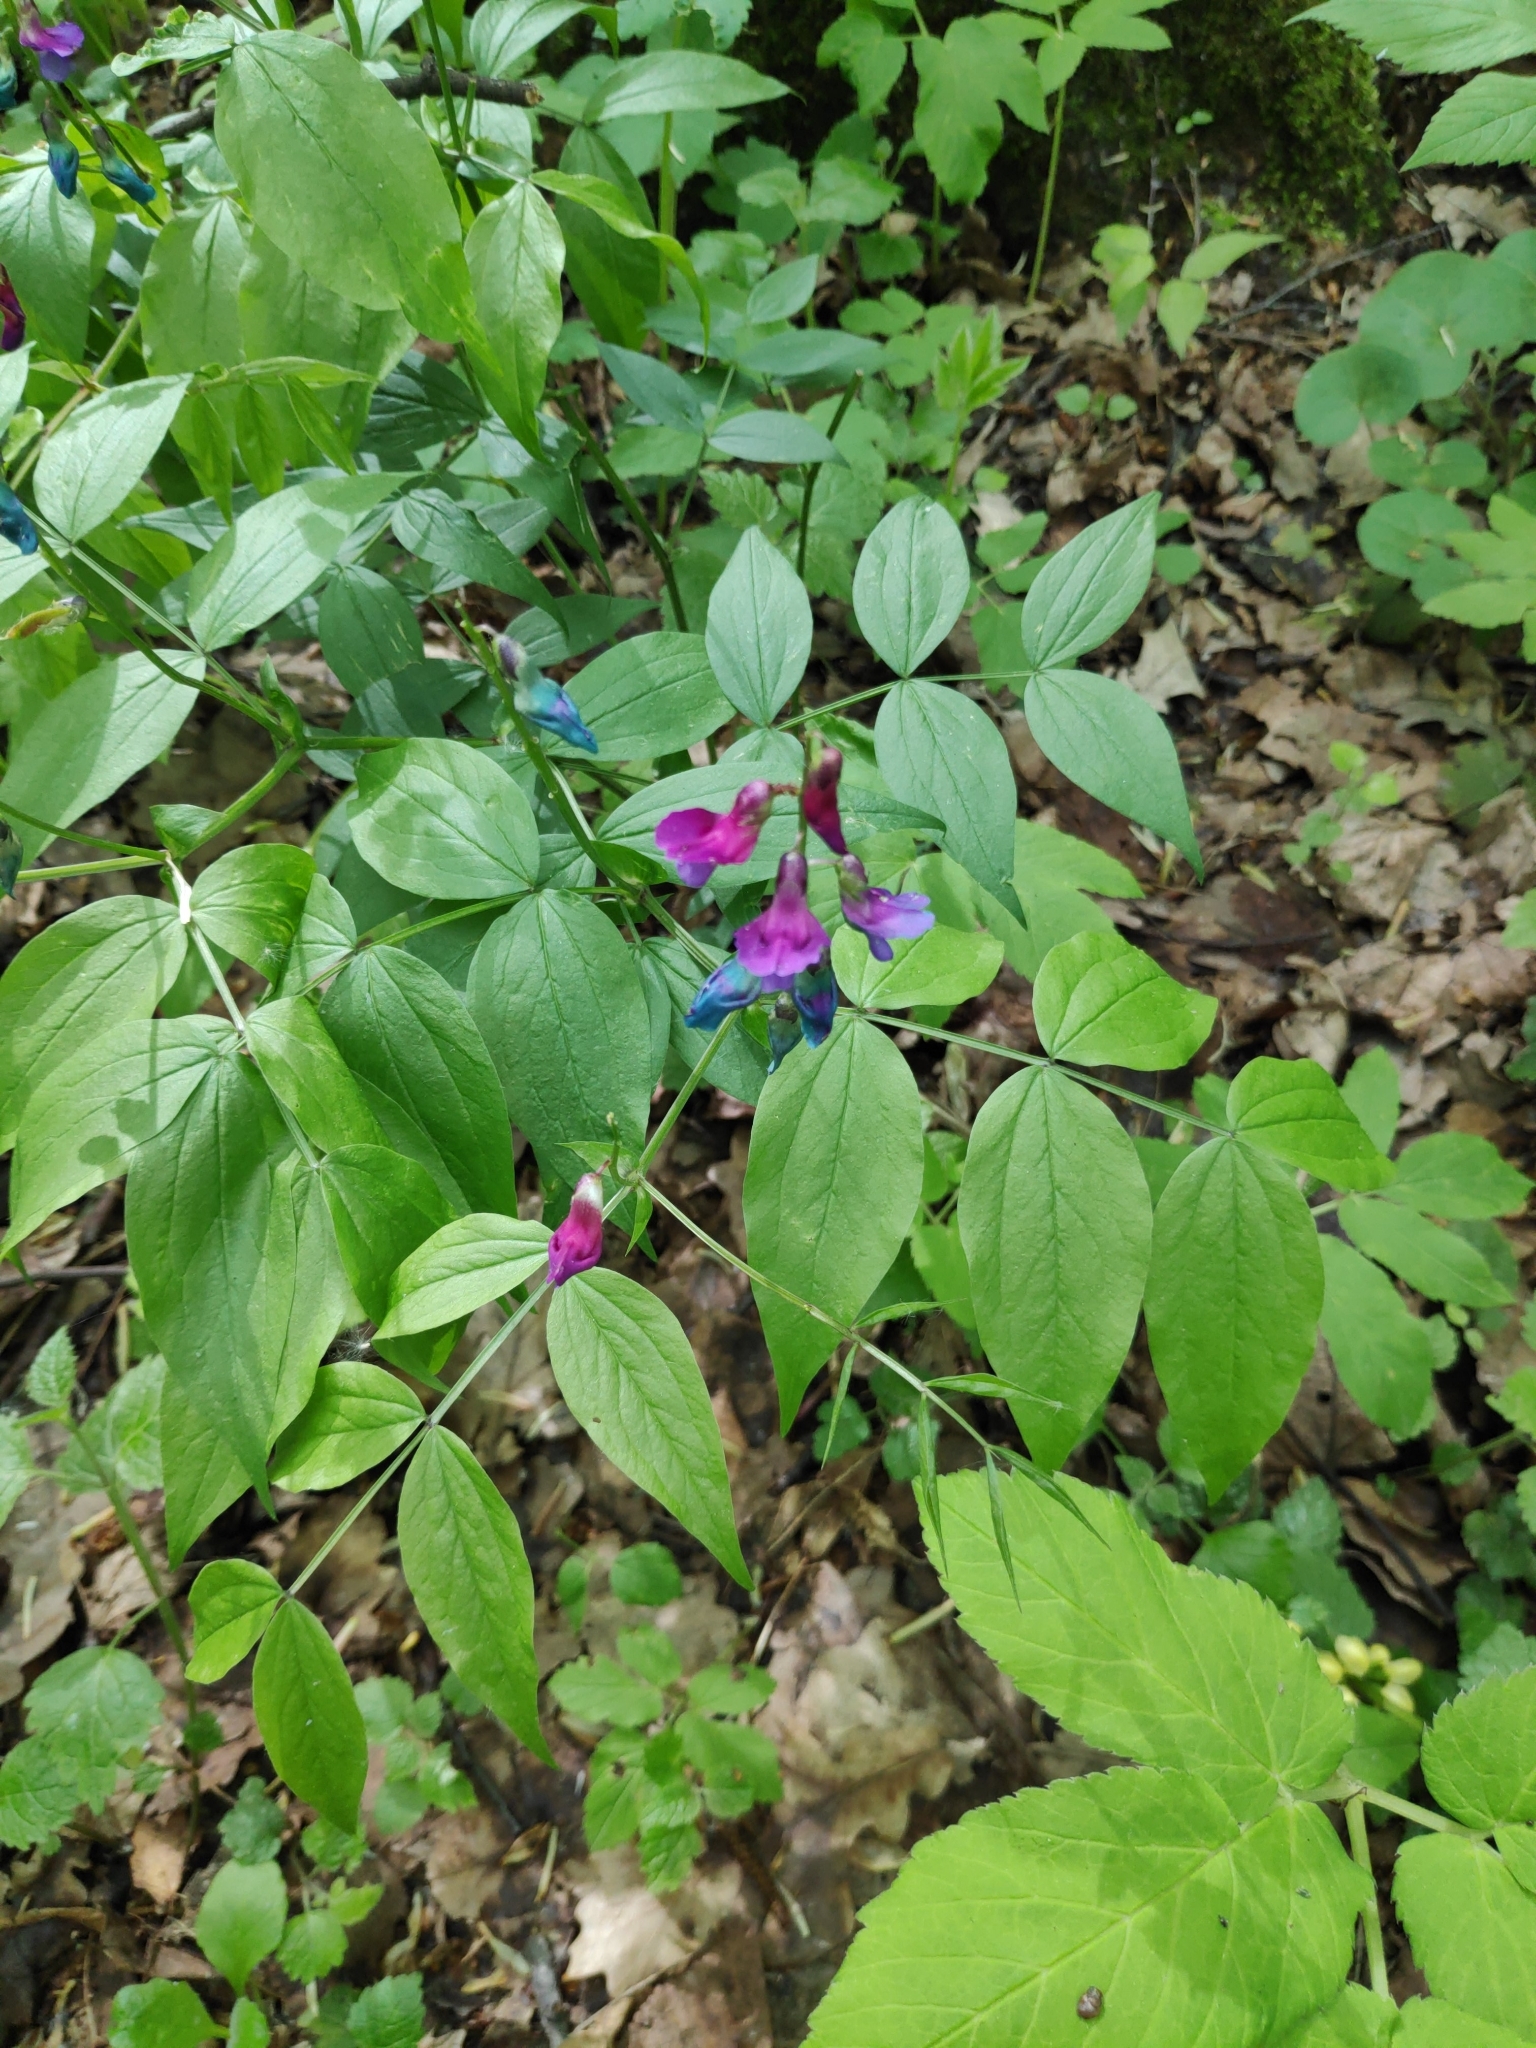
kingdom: Plantae
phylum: Tracheophyta
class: Magnoliopsida
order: Fabales
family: Fabaceae
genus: Lathyrus
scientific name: Lathyrus vernus
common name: Spring pea
